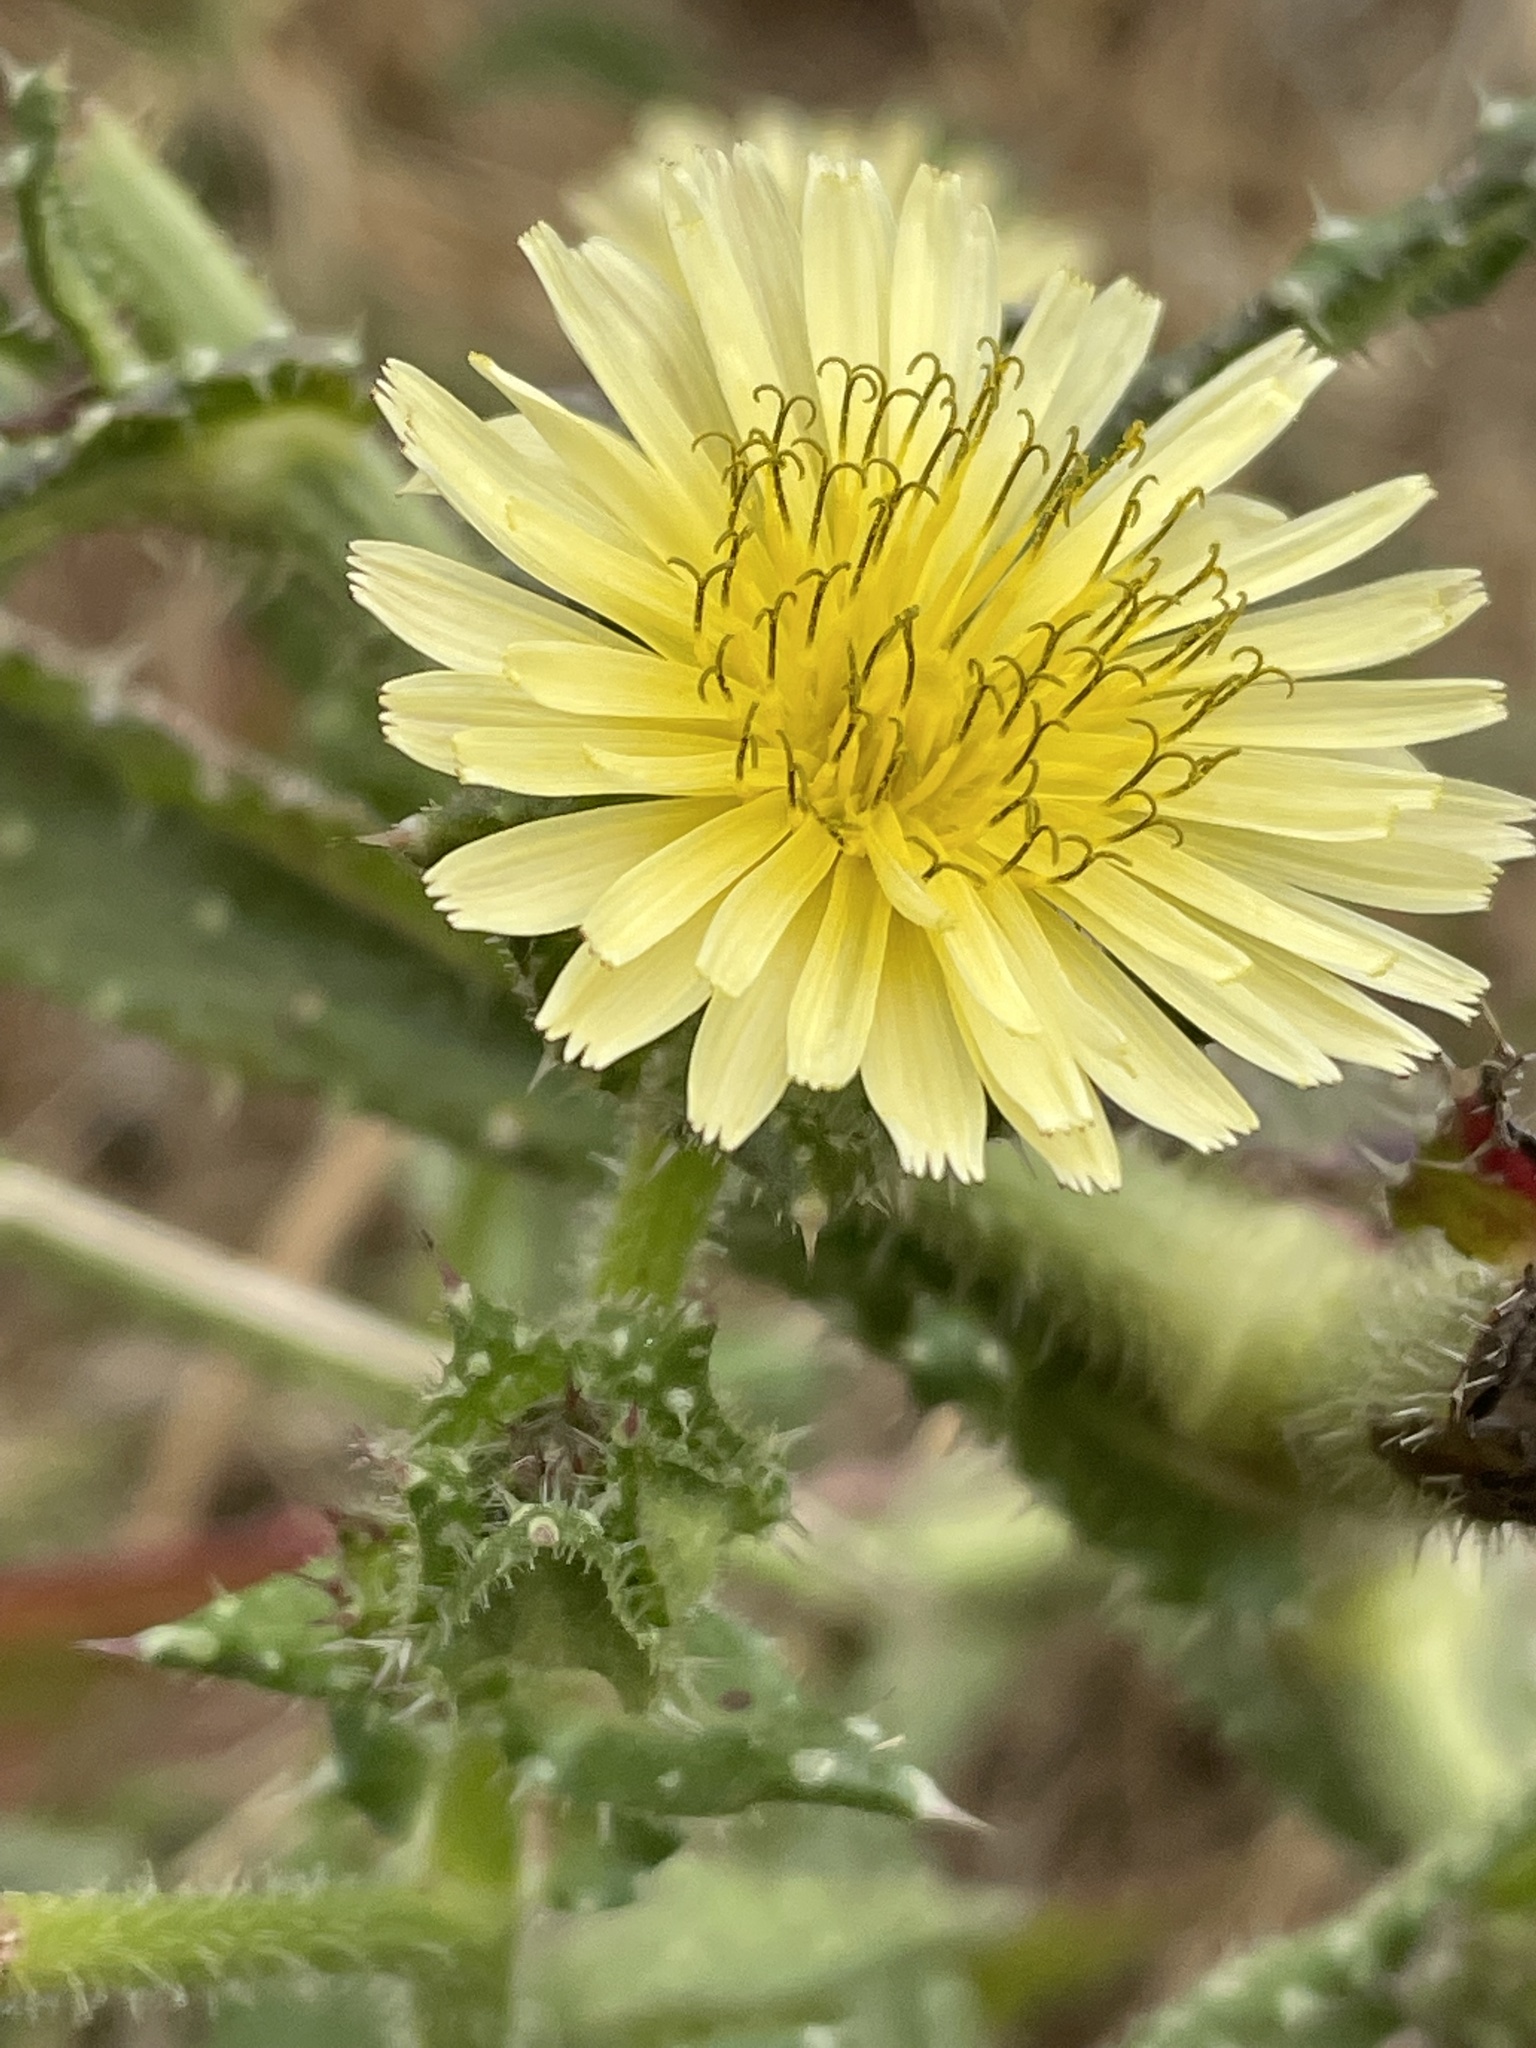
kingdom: Plantae
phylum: Tracheophyta
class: Magnoliopsida
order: Asterales
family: Asteraceae
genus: Helminthotheca
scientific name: Helminthotheca echioides
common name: Ox-tongue
